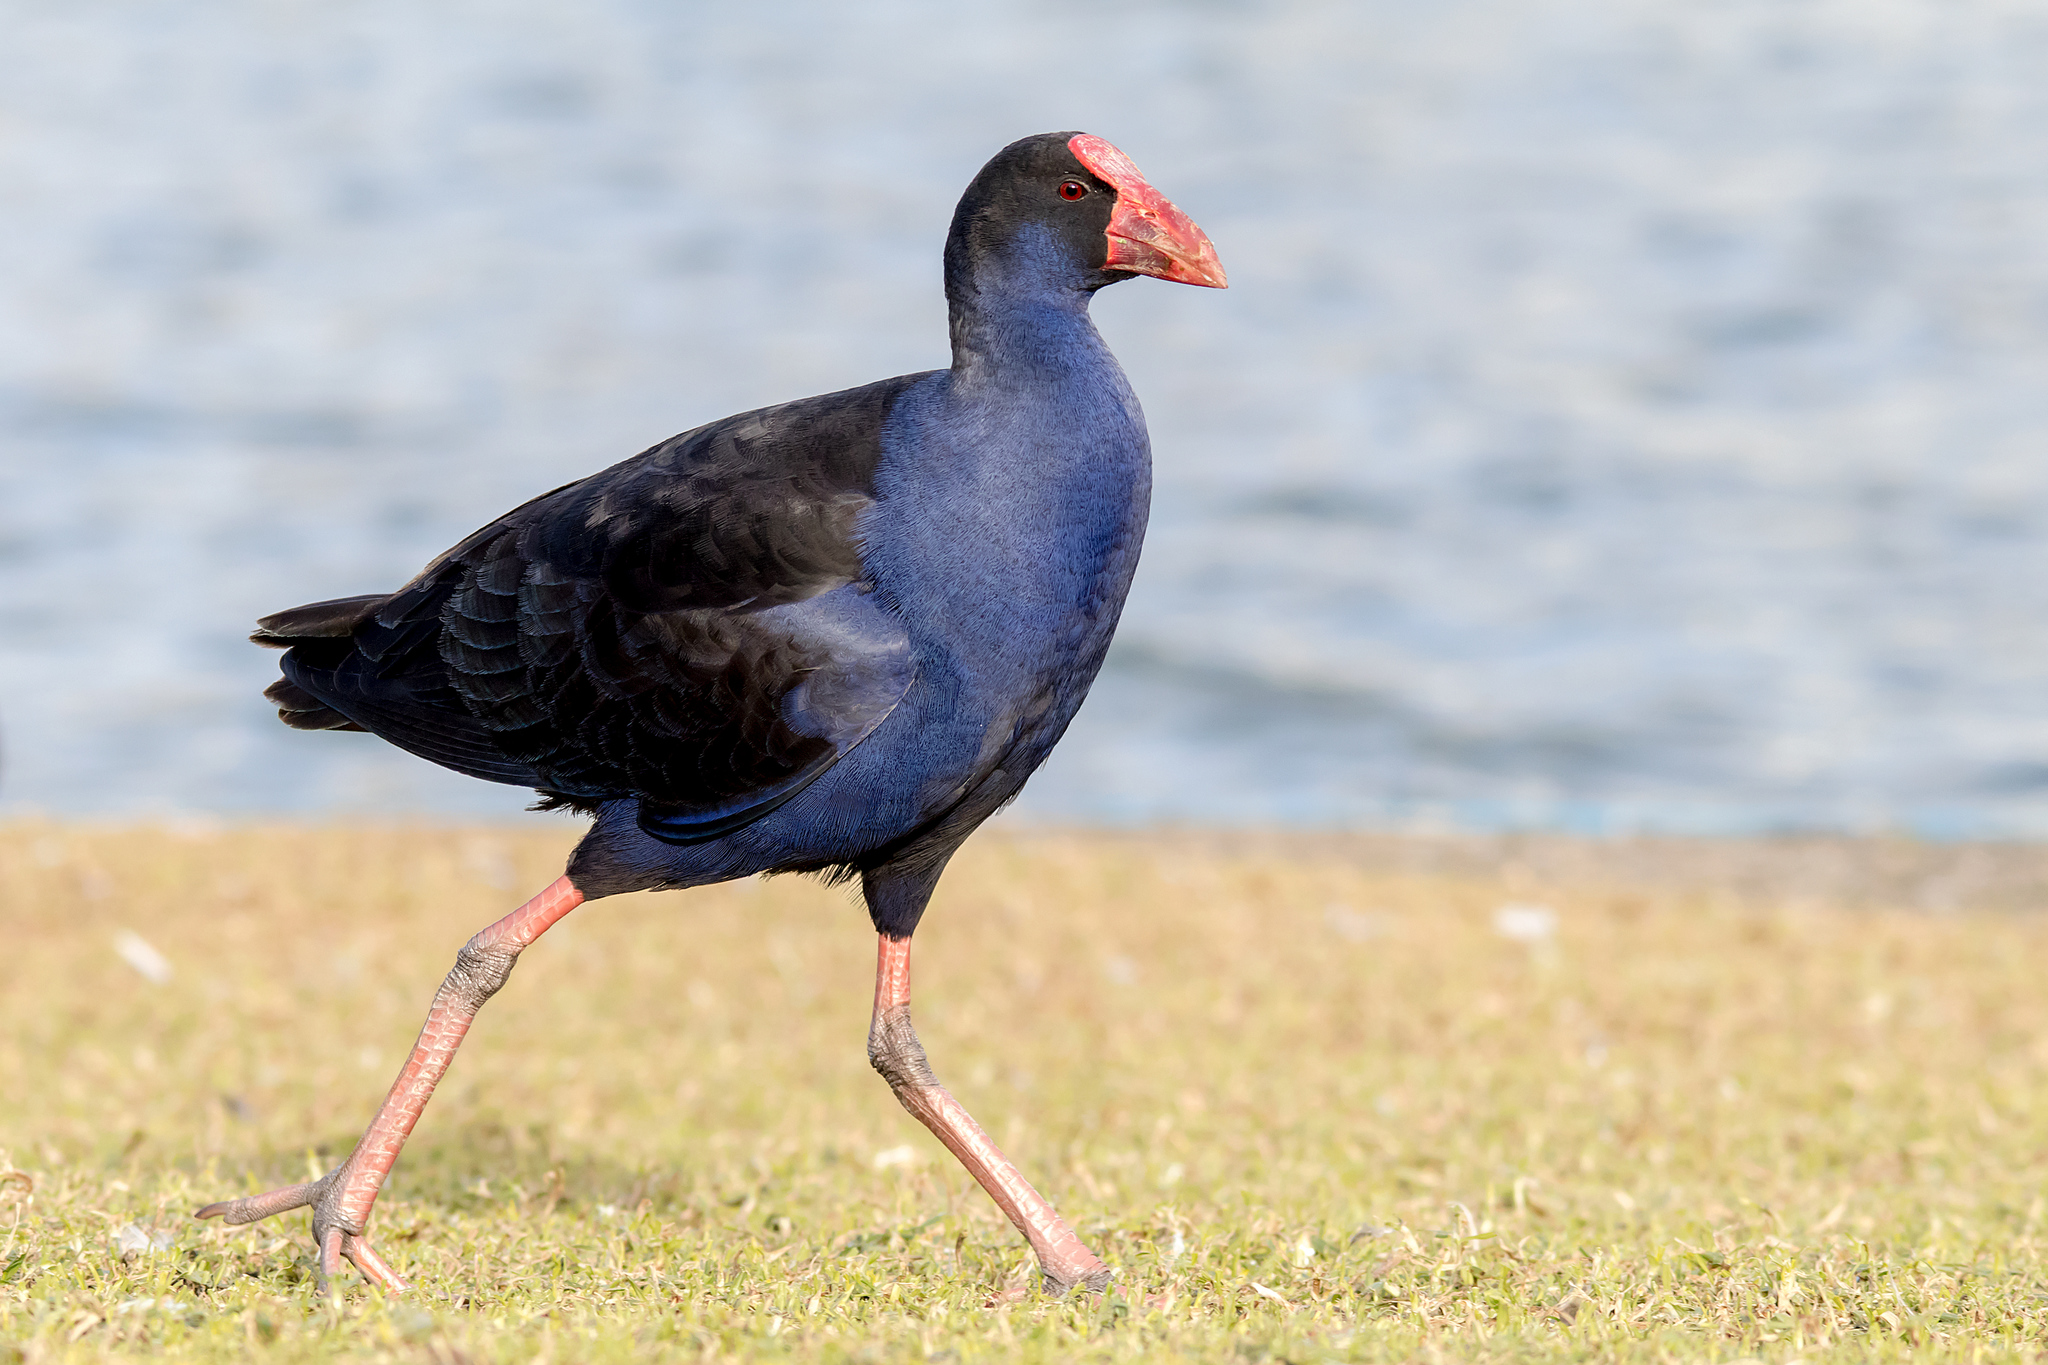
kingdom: Animalia
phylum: Chordata
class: Aves
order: Gruiformes
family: Rallidae
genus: Porphyrio
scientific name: Porphyrio melanotus
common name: Australasian swamphen
